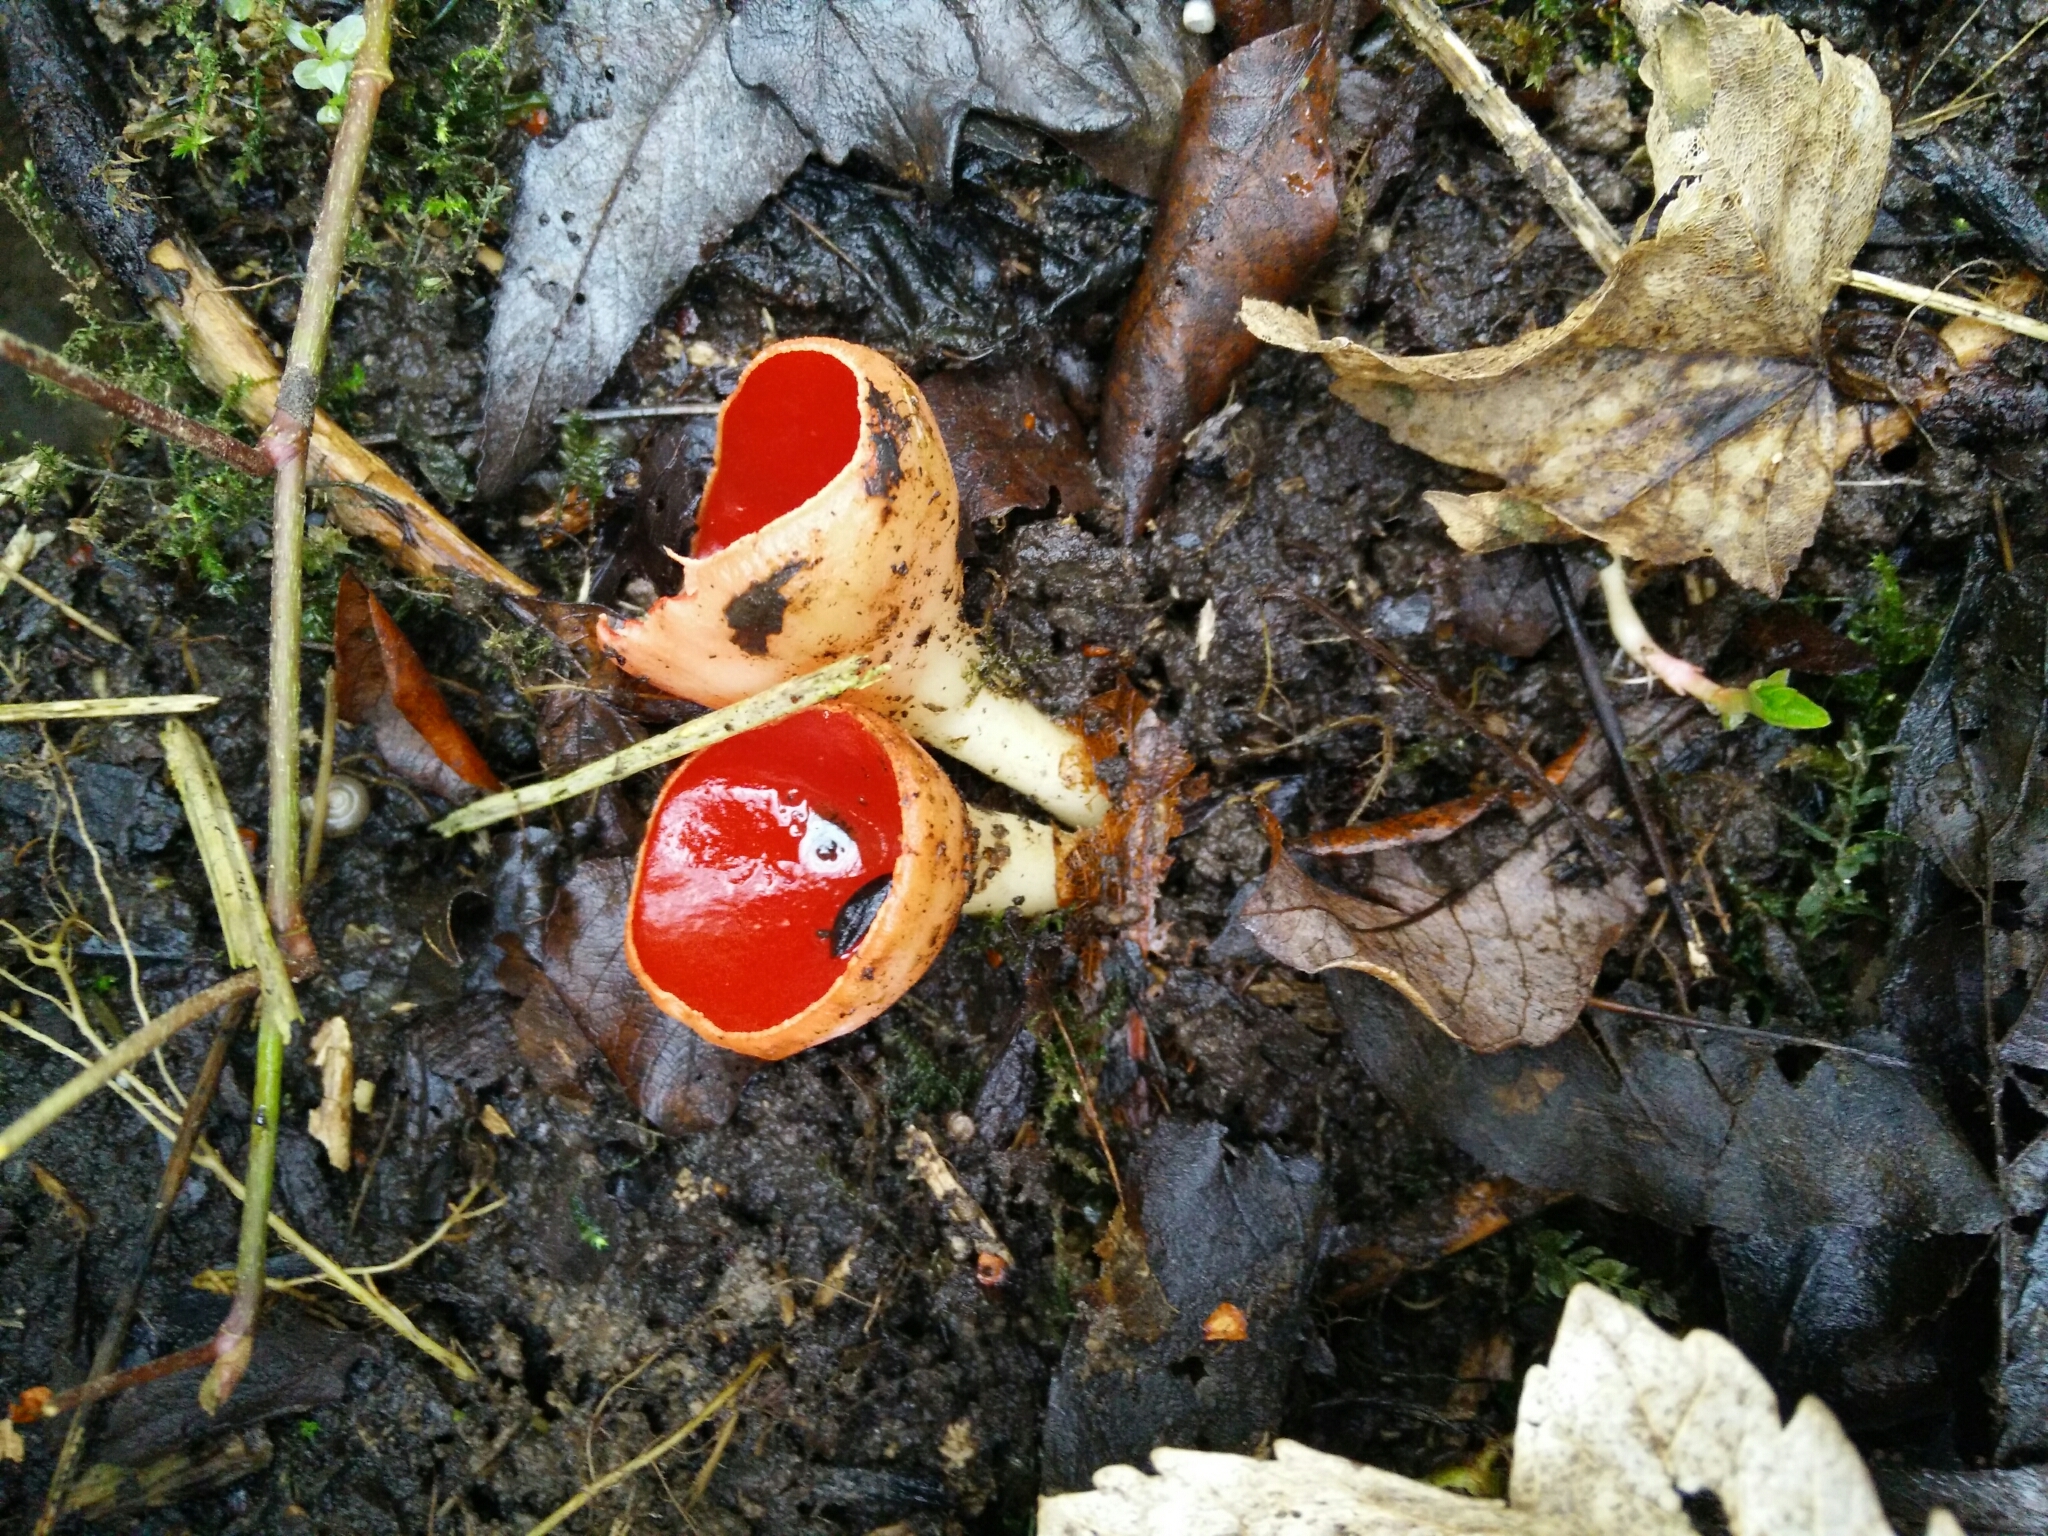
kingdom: Fungi
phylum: Ascomycota
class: Pezizomycetes
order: Pezizales
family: Sarcoscyphaceae
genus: Sarcoscypha
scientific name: Sarcoscypha
